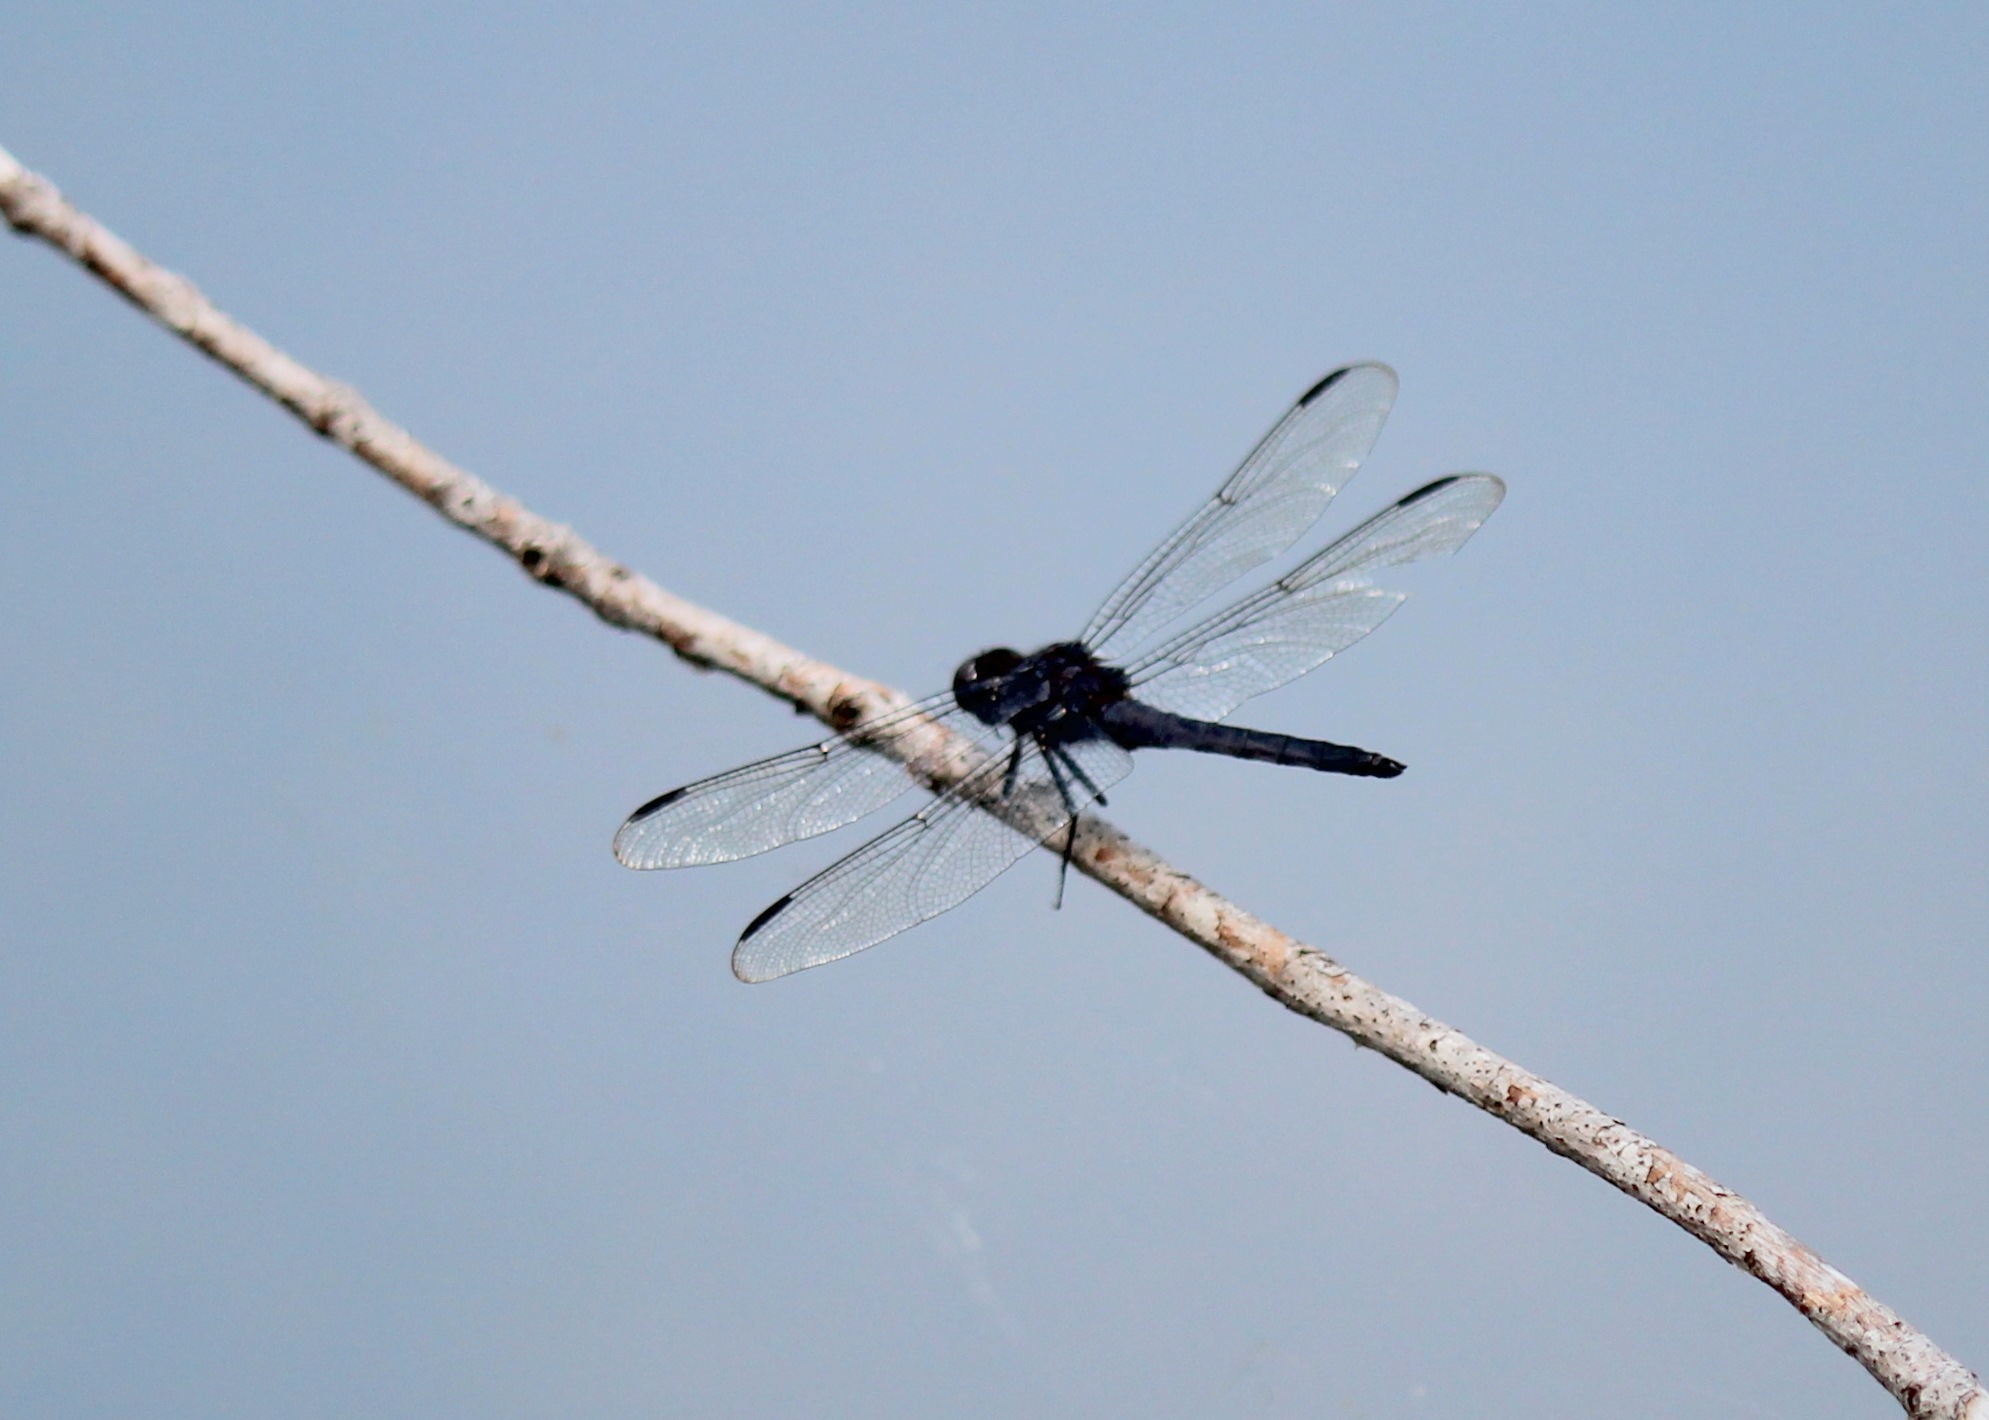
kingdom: Animalia
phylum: Arthropoda
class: Insecta
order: Odonata
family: Libellulidae
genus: Libellula
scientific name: Libellula incesta
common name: Slaty skimmer
